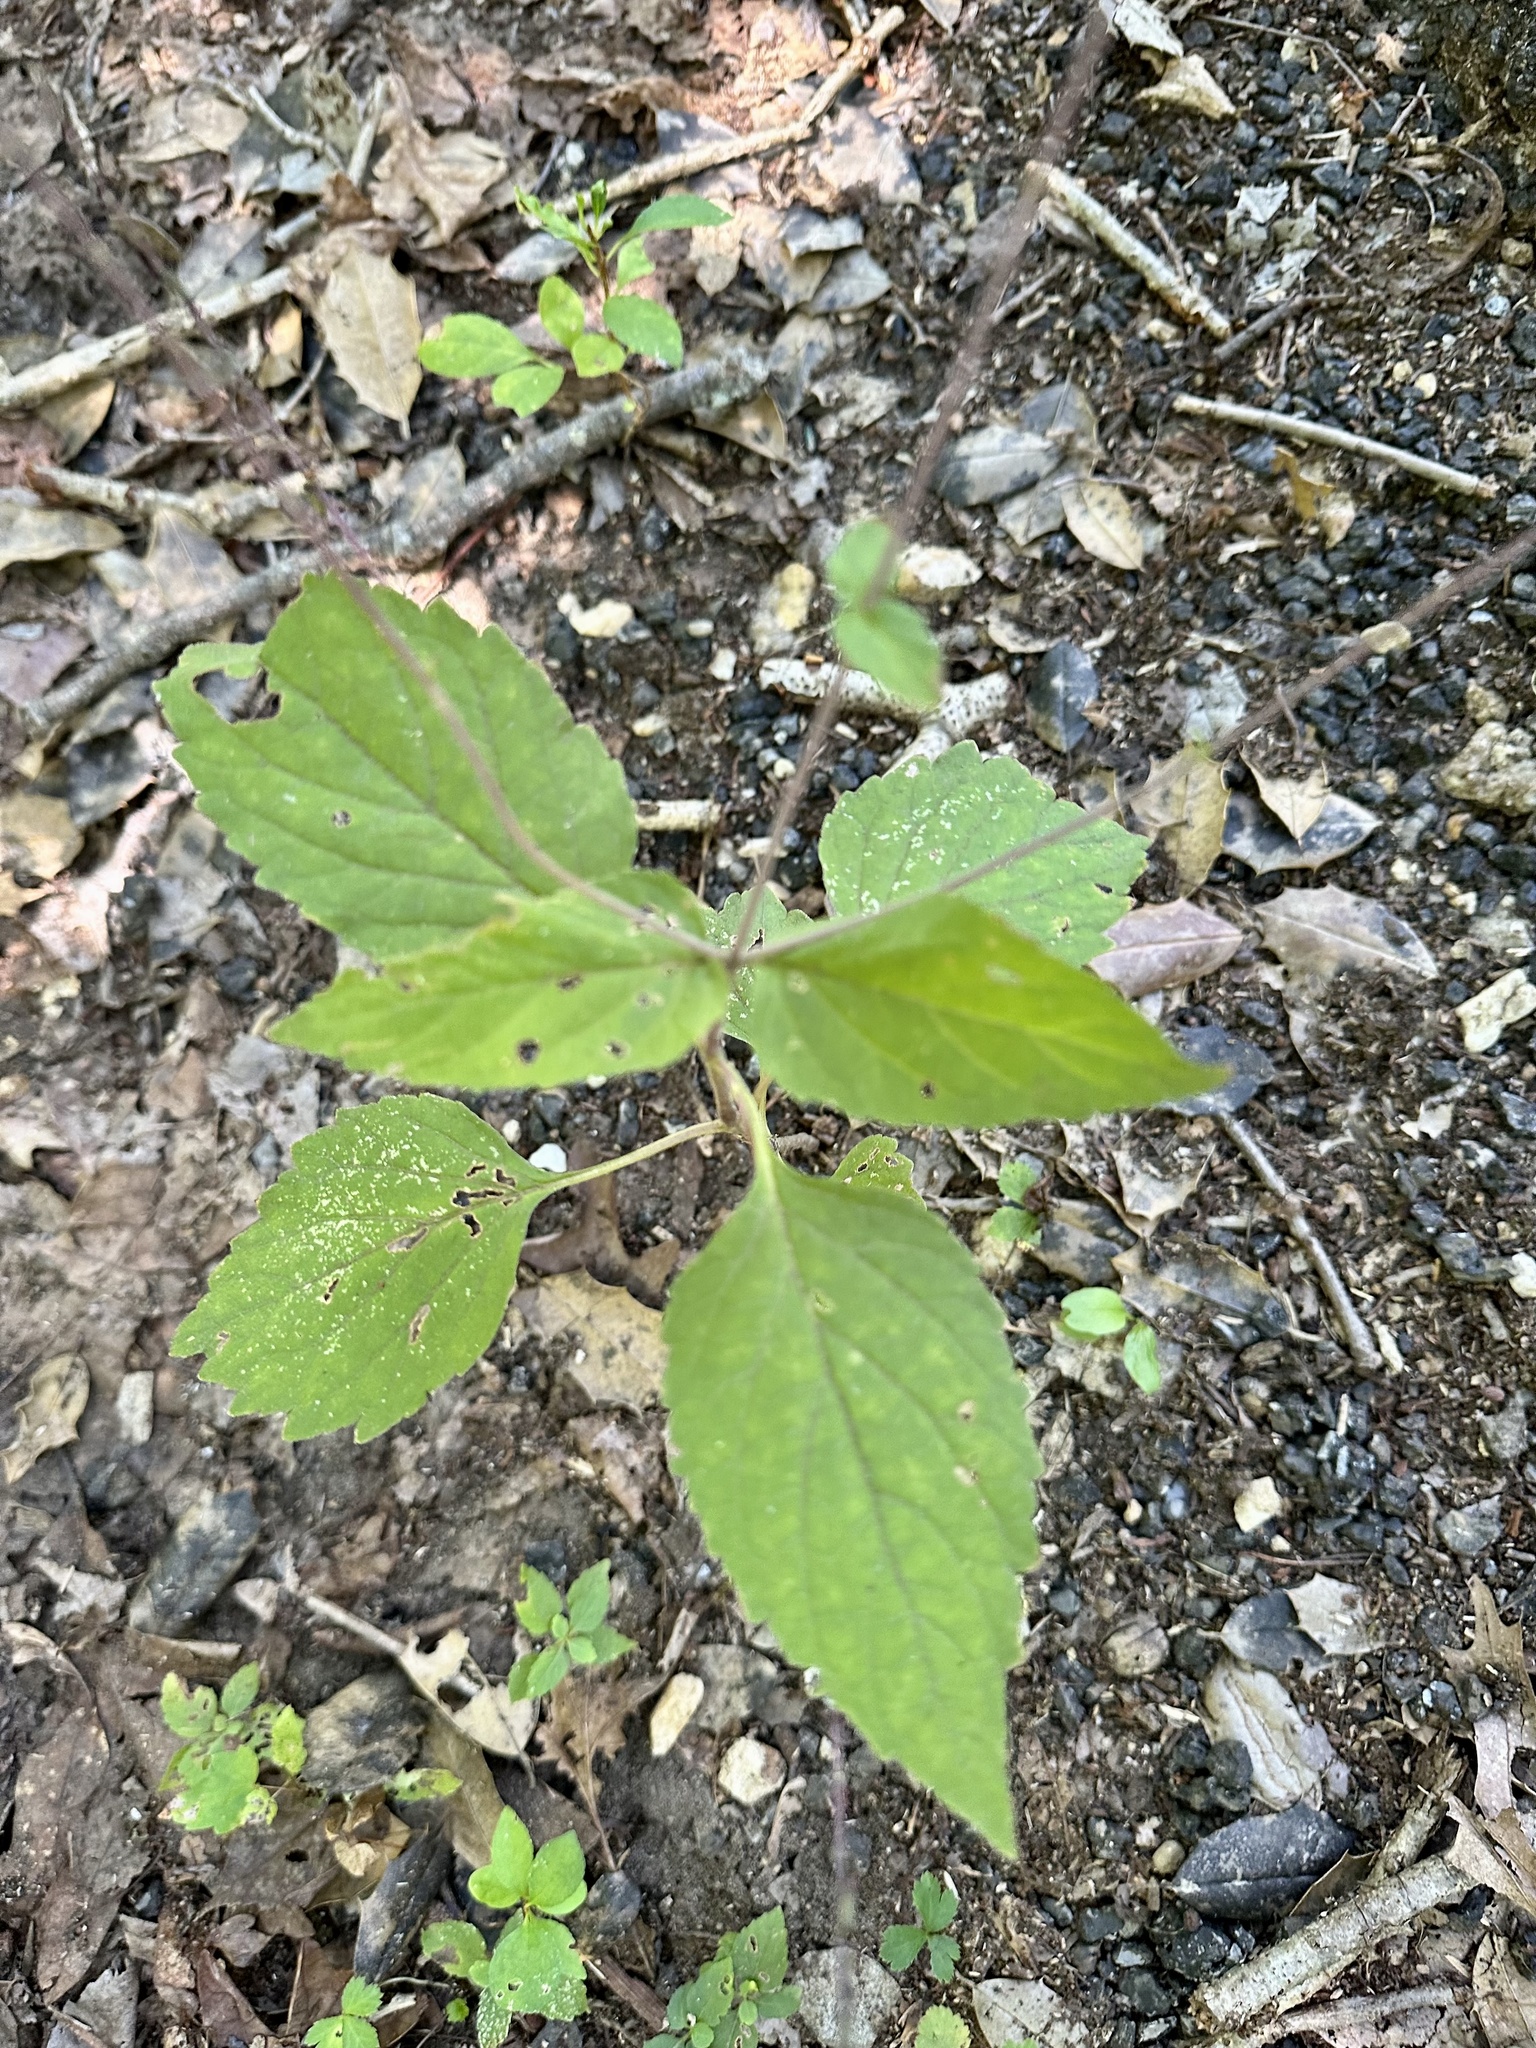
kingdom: Plantae
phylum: Tracheophyta
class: Magnoliopsida
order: Lamiales
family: Phrymaceae
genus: Phryma
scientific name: Phryma leptostachya
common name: American lopseed
